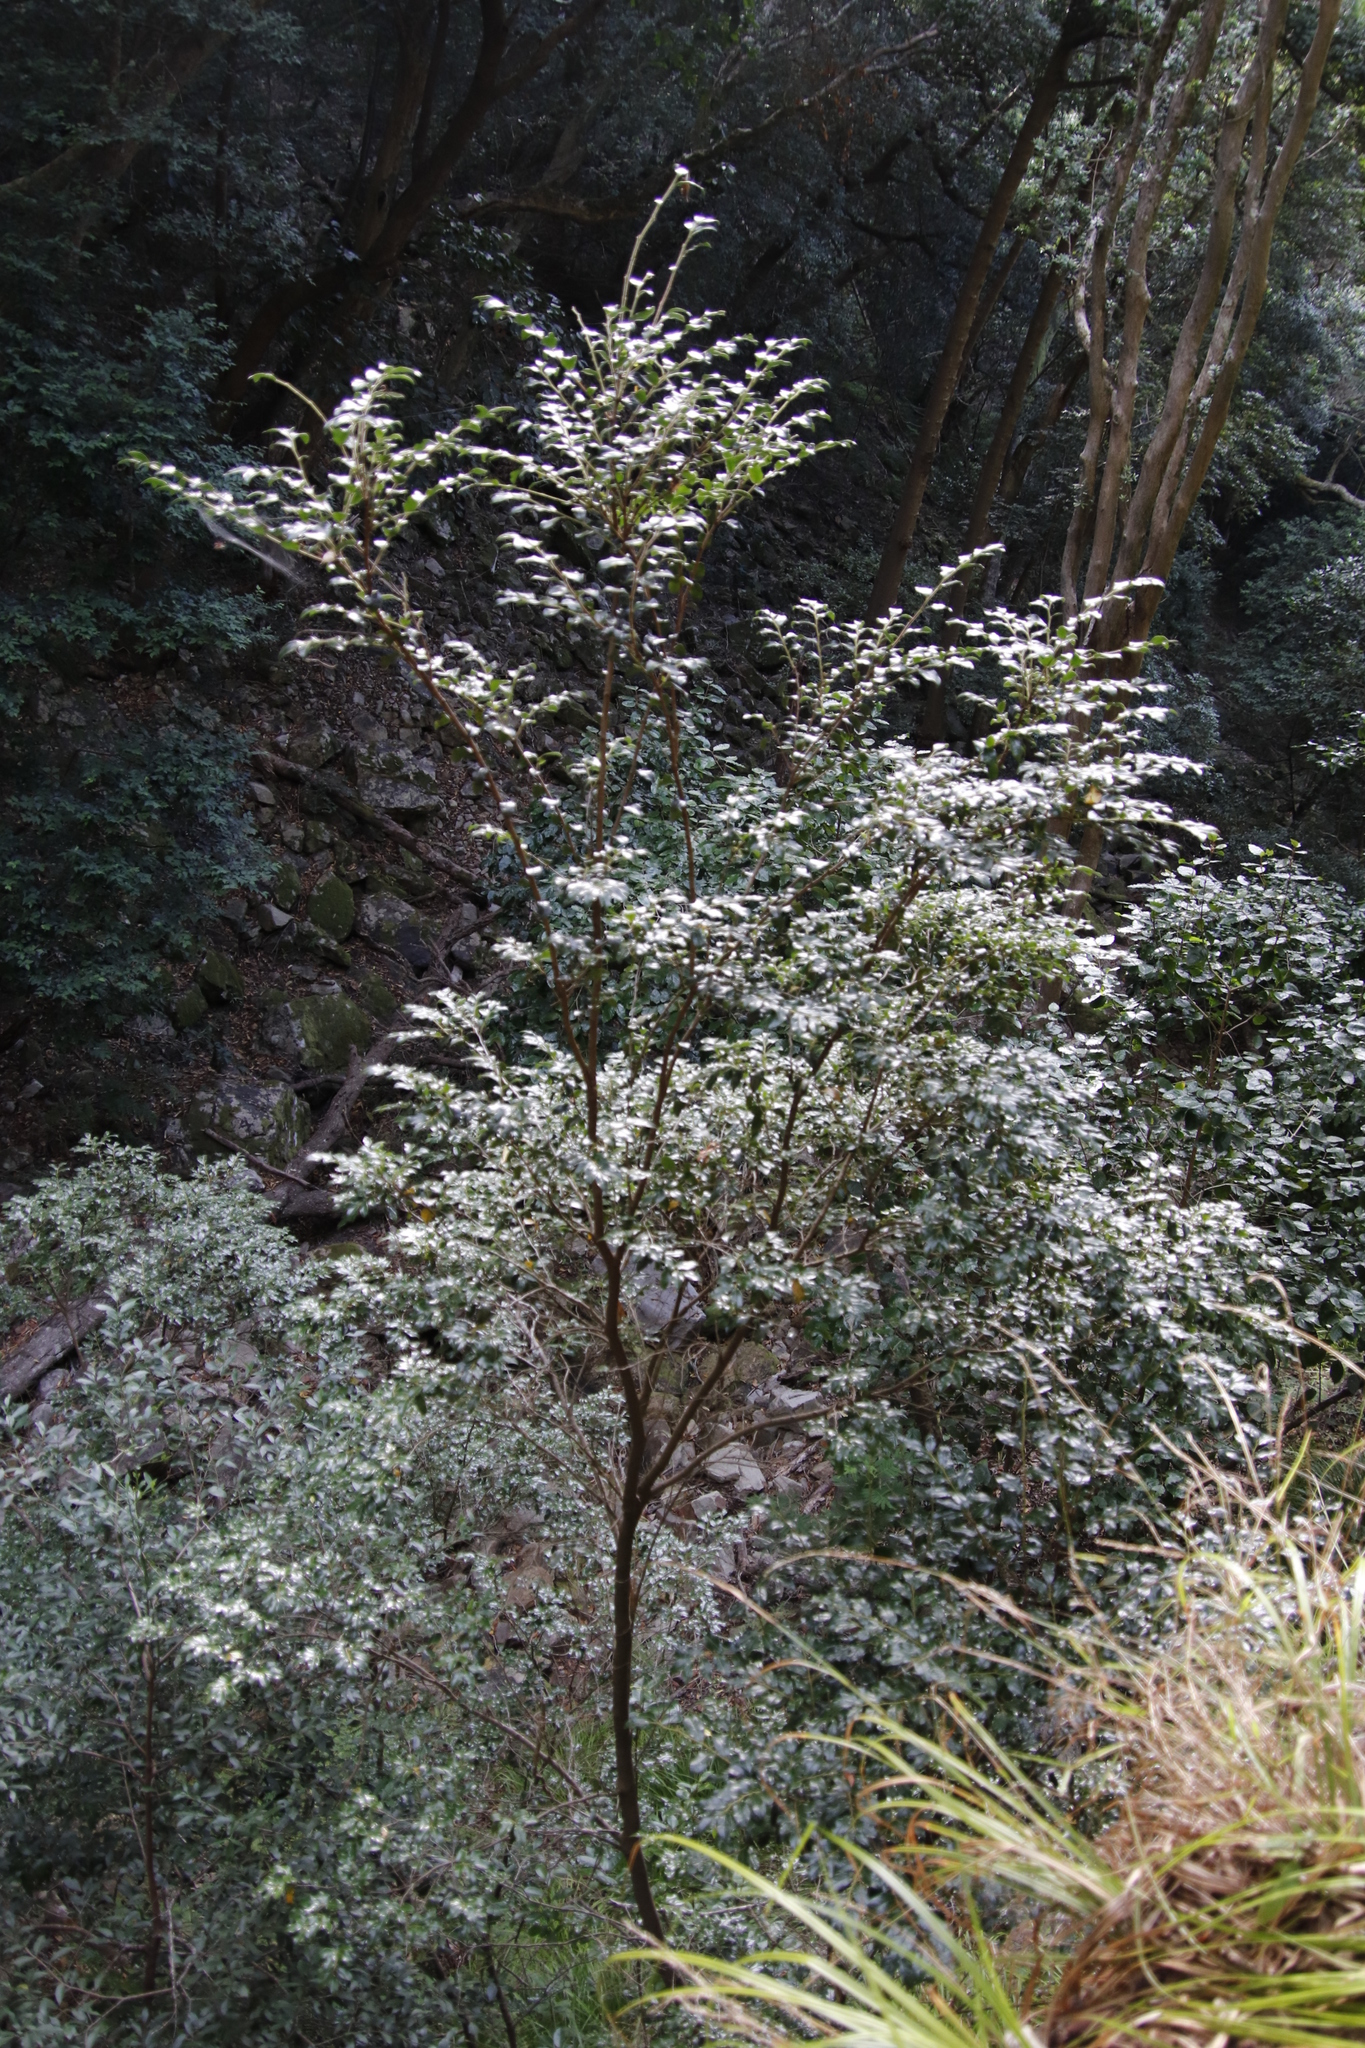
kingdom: Plantae
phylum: Tracheophyta
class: Magnoliopsida
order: Ericales
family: Ebenaceae
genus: Diospyros
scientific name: Diospyros whyteana
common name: Bladder-nut
